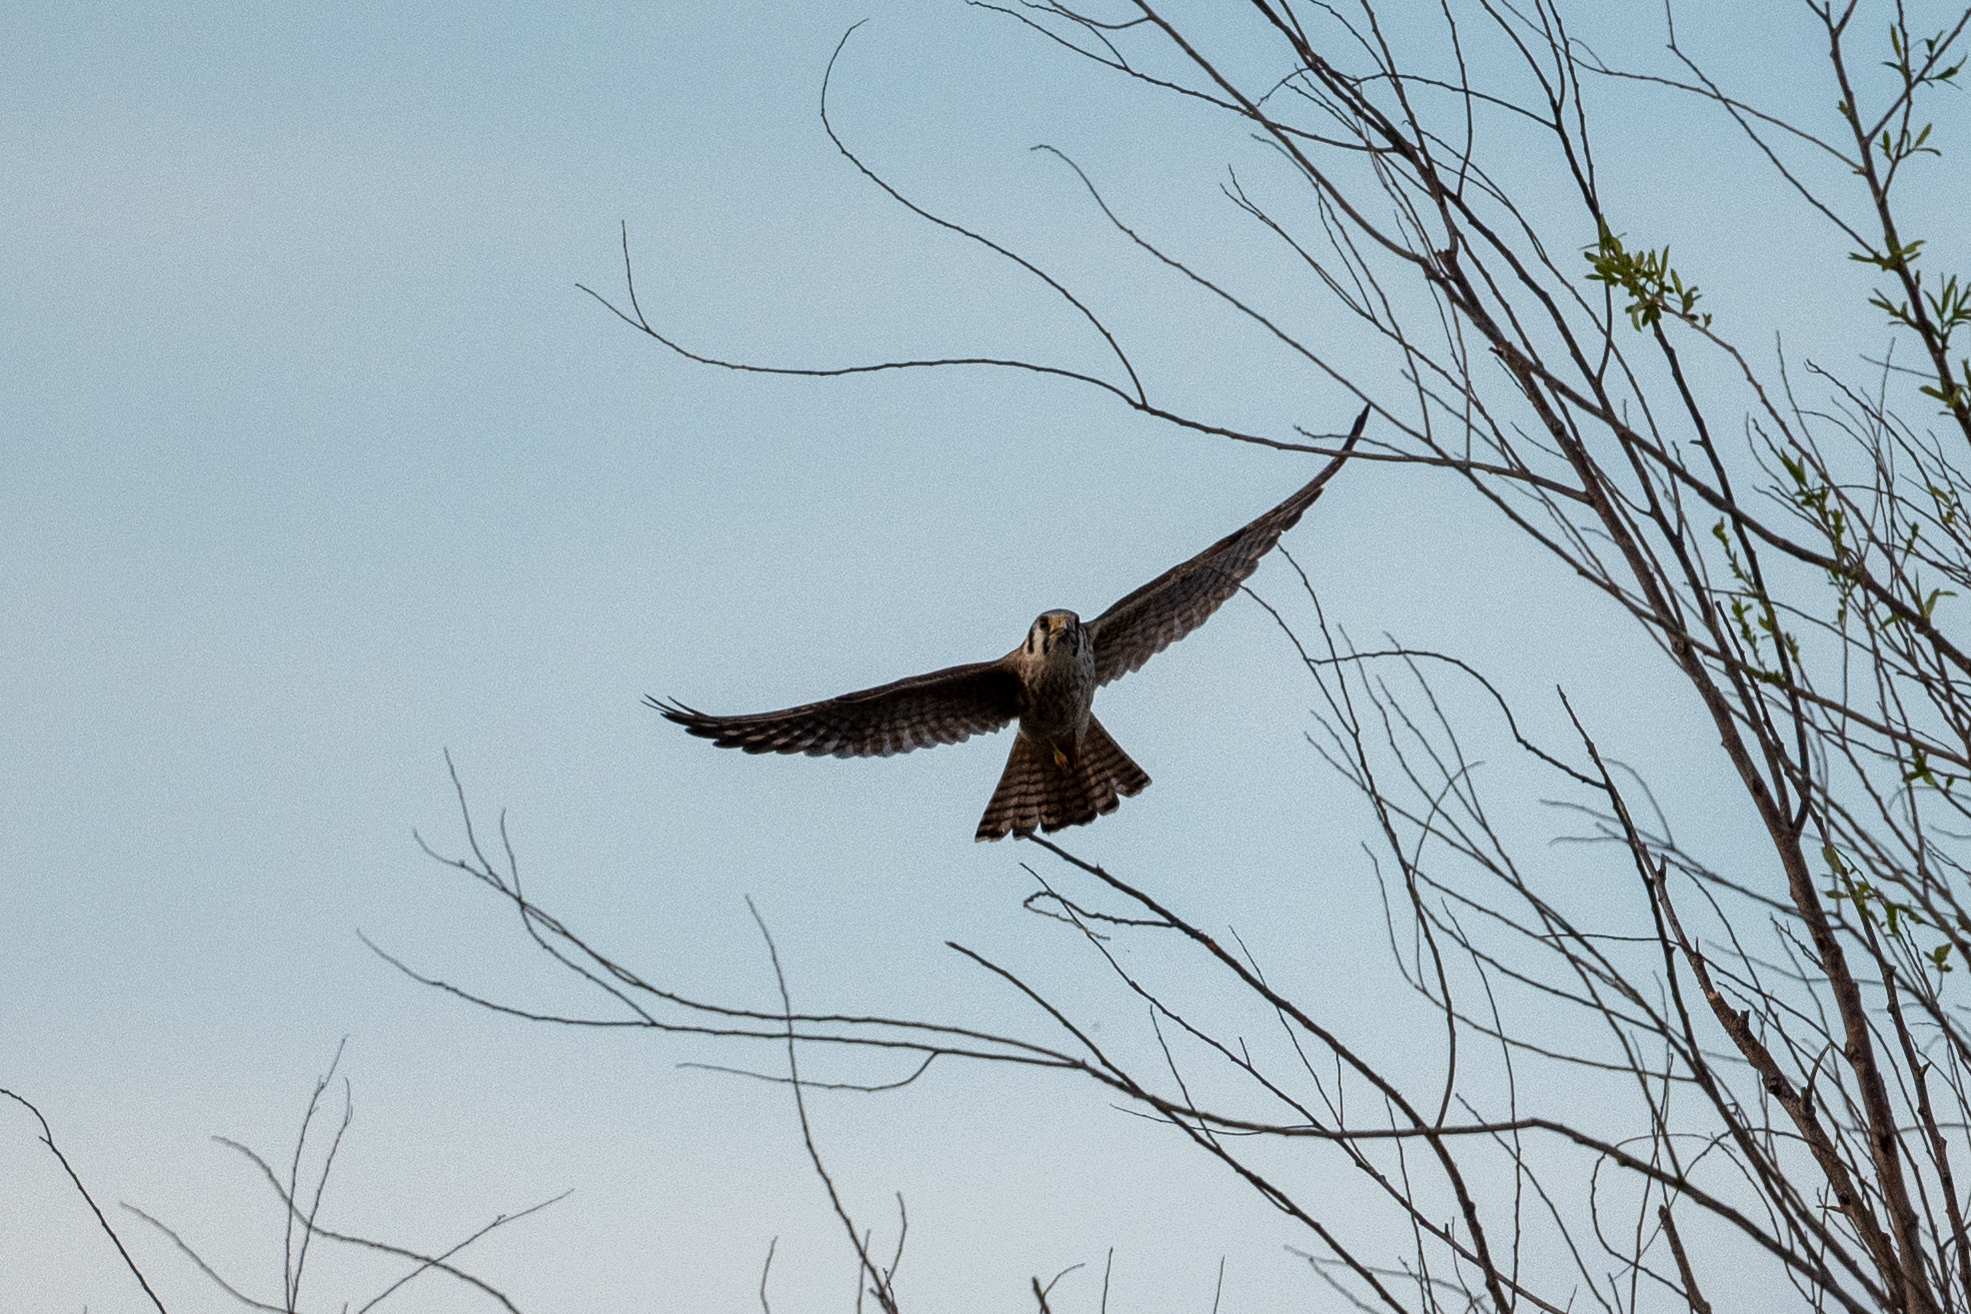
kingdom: Animalia
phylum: Chordata
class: Aves
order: Falconiformes
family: Falconidae
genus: Falco
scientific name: Falco sparverius
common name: American kestrel
